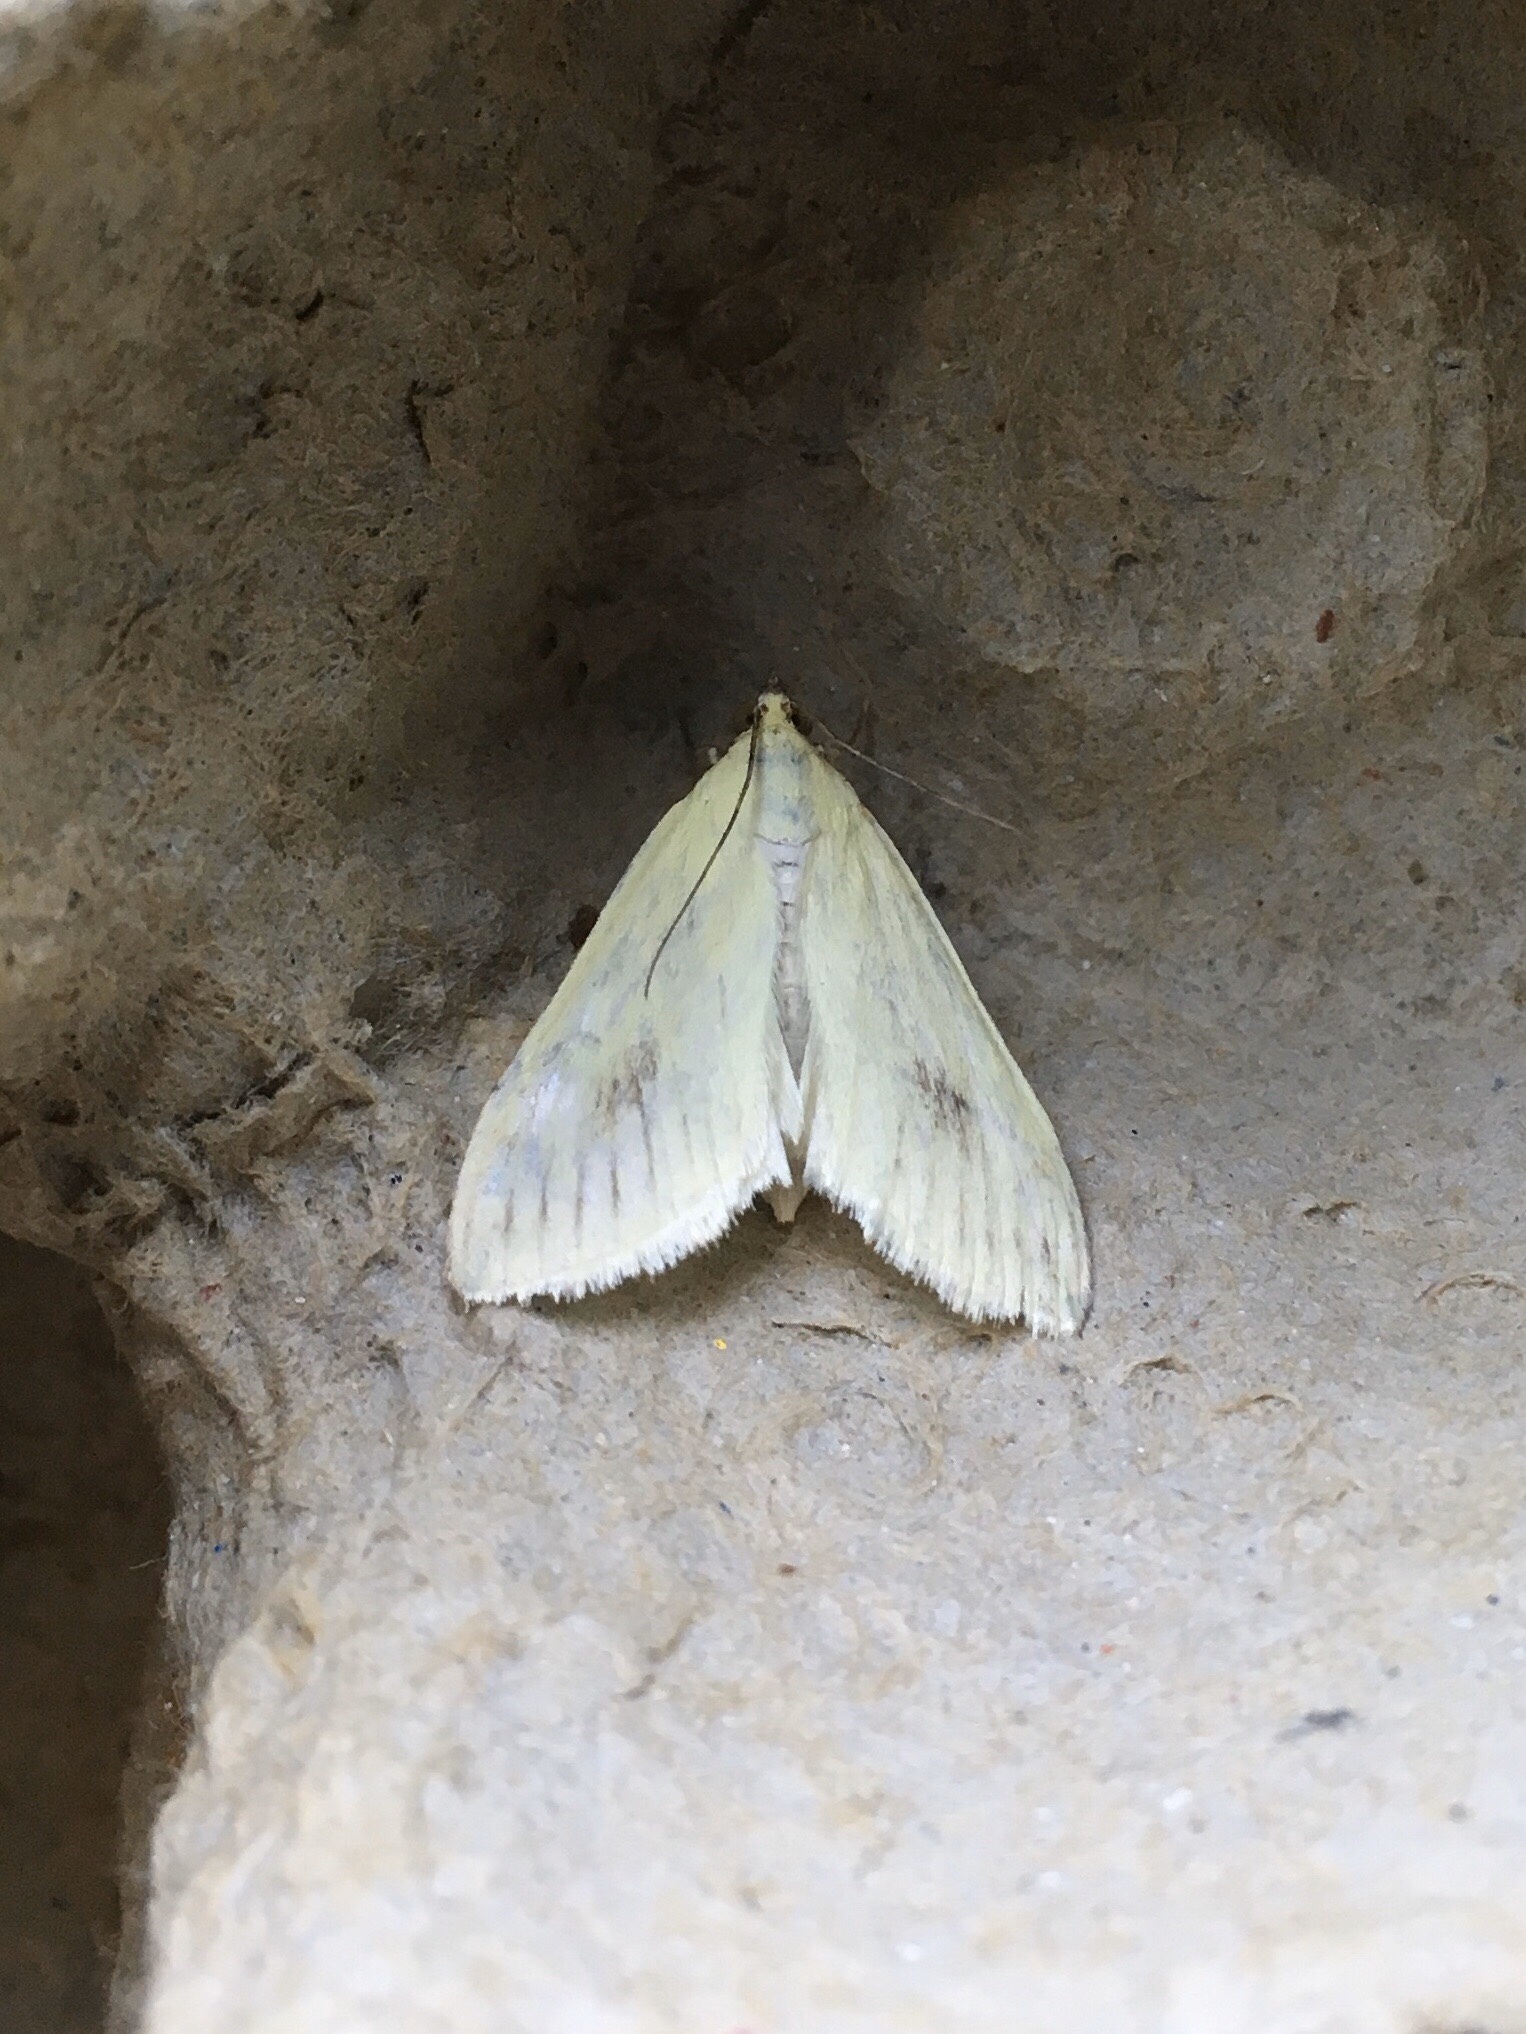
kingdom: Animalia
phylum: Arthropoda
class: Insecta
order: Lepidoptera
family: Crambidae
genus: Sitochroa
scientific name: Sitochroa palealis
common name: Greenish-yellow sitochroa moth
